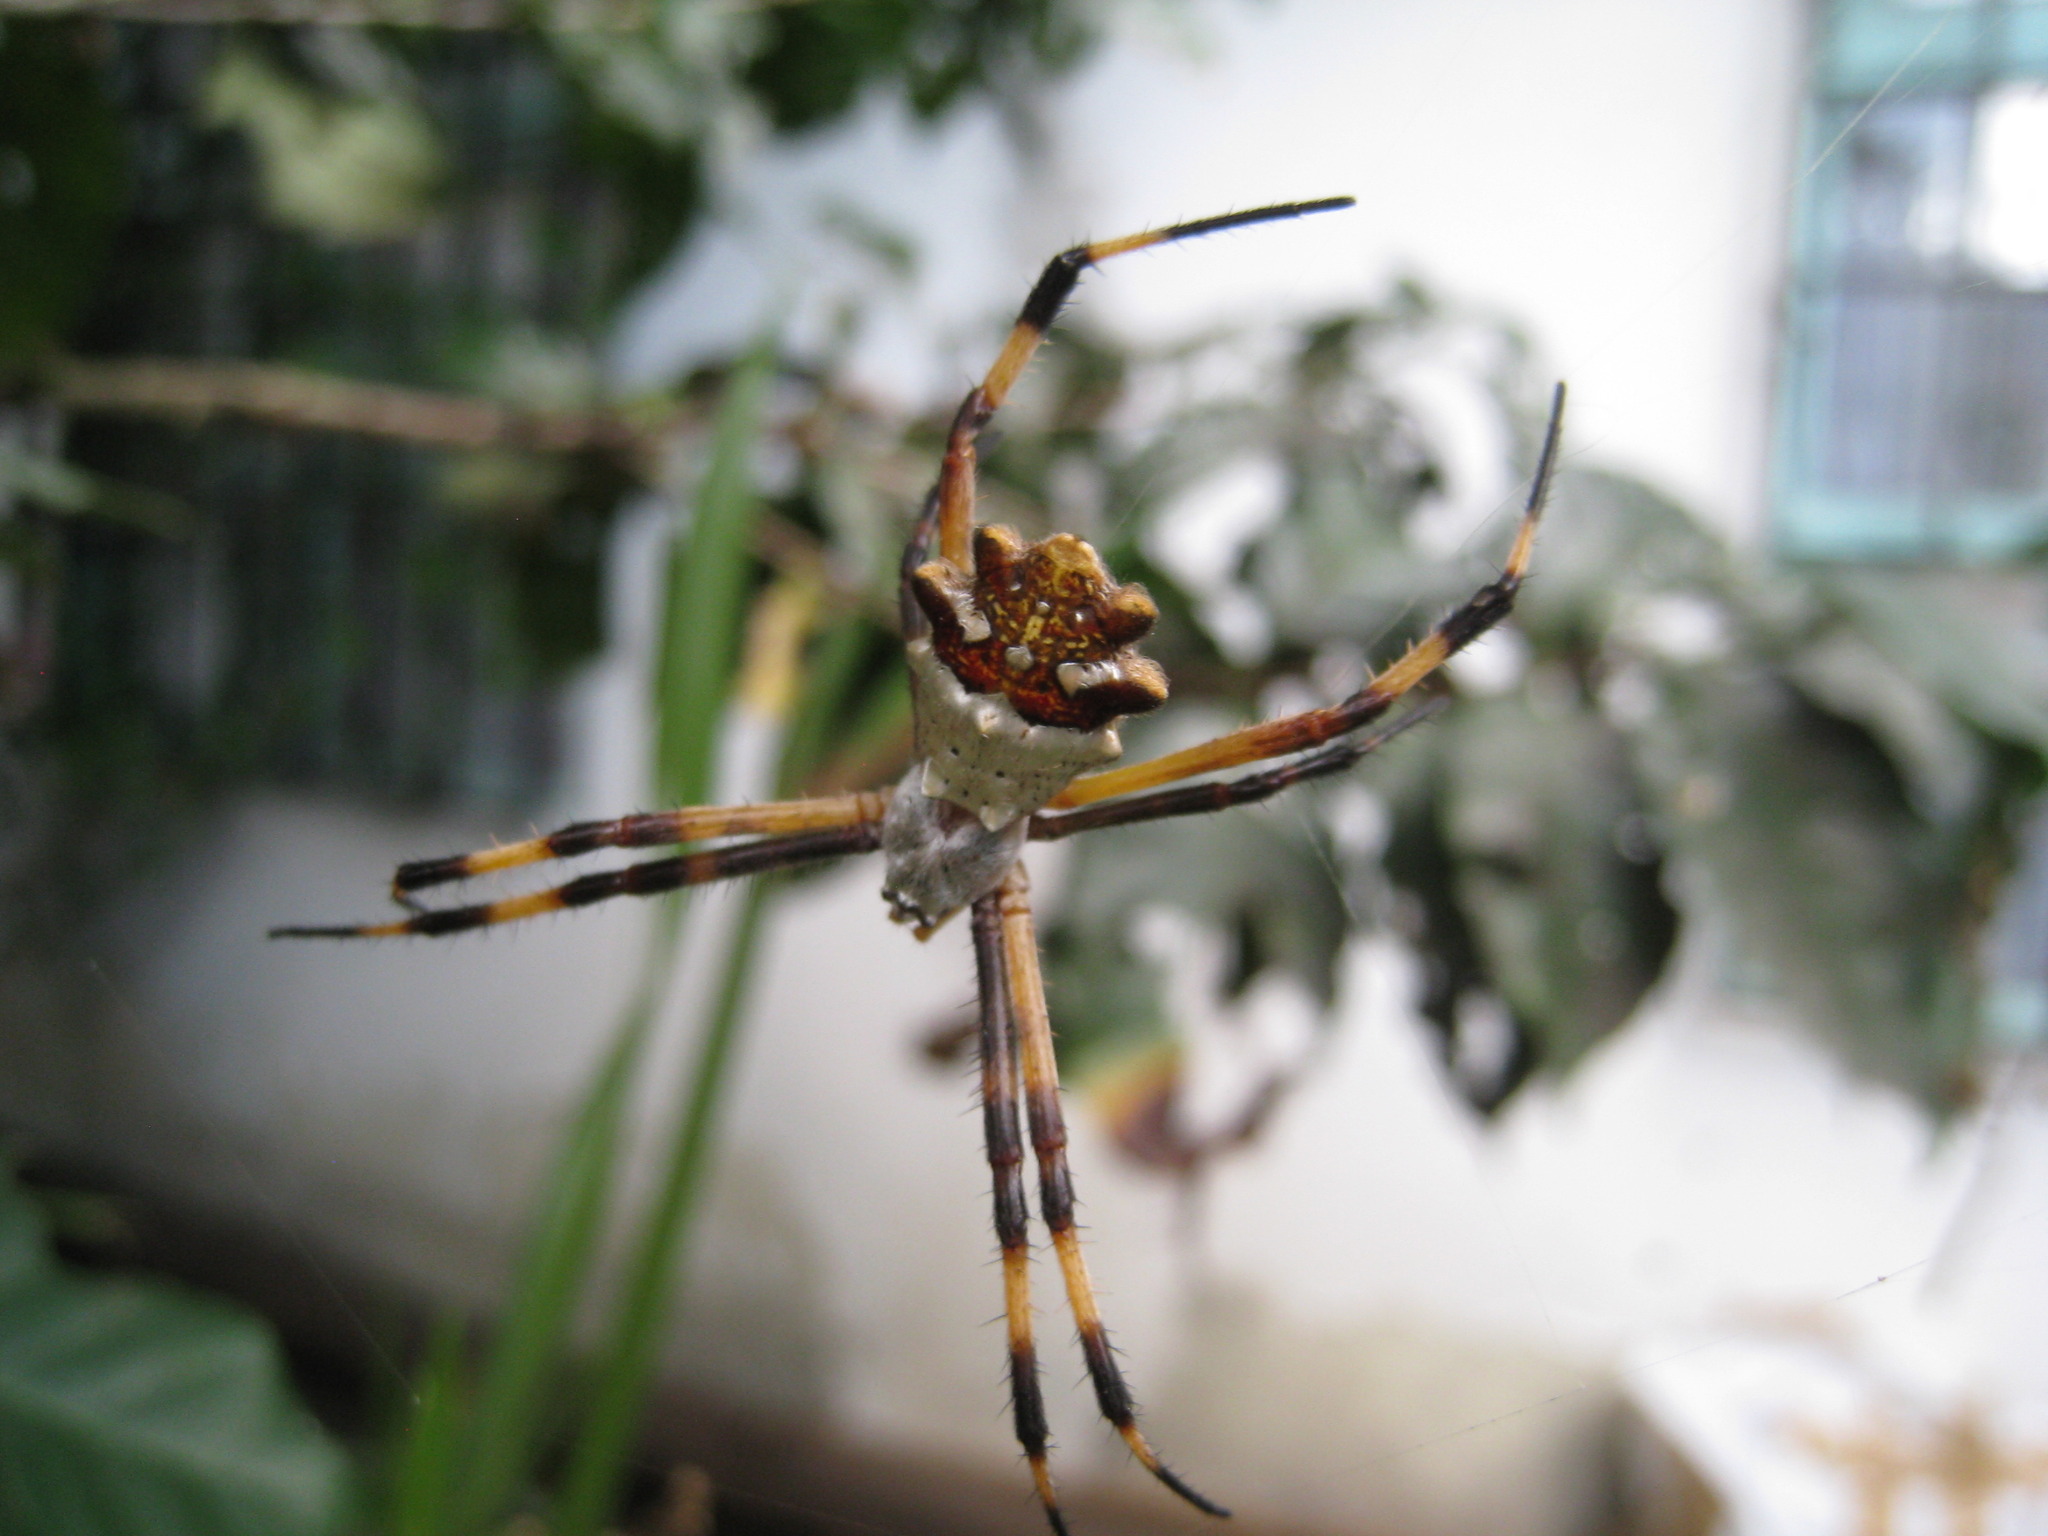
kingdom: Animalia
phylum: Arthropoda
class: Arachnida
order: Araneae
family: Araneidae
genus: Argiope
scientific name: Argiope argentata
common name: Orb weavers
